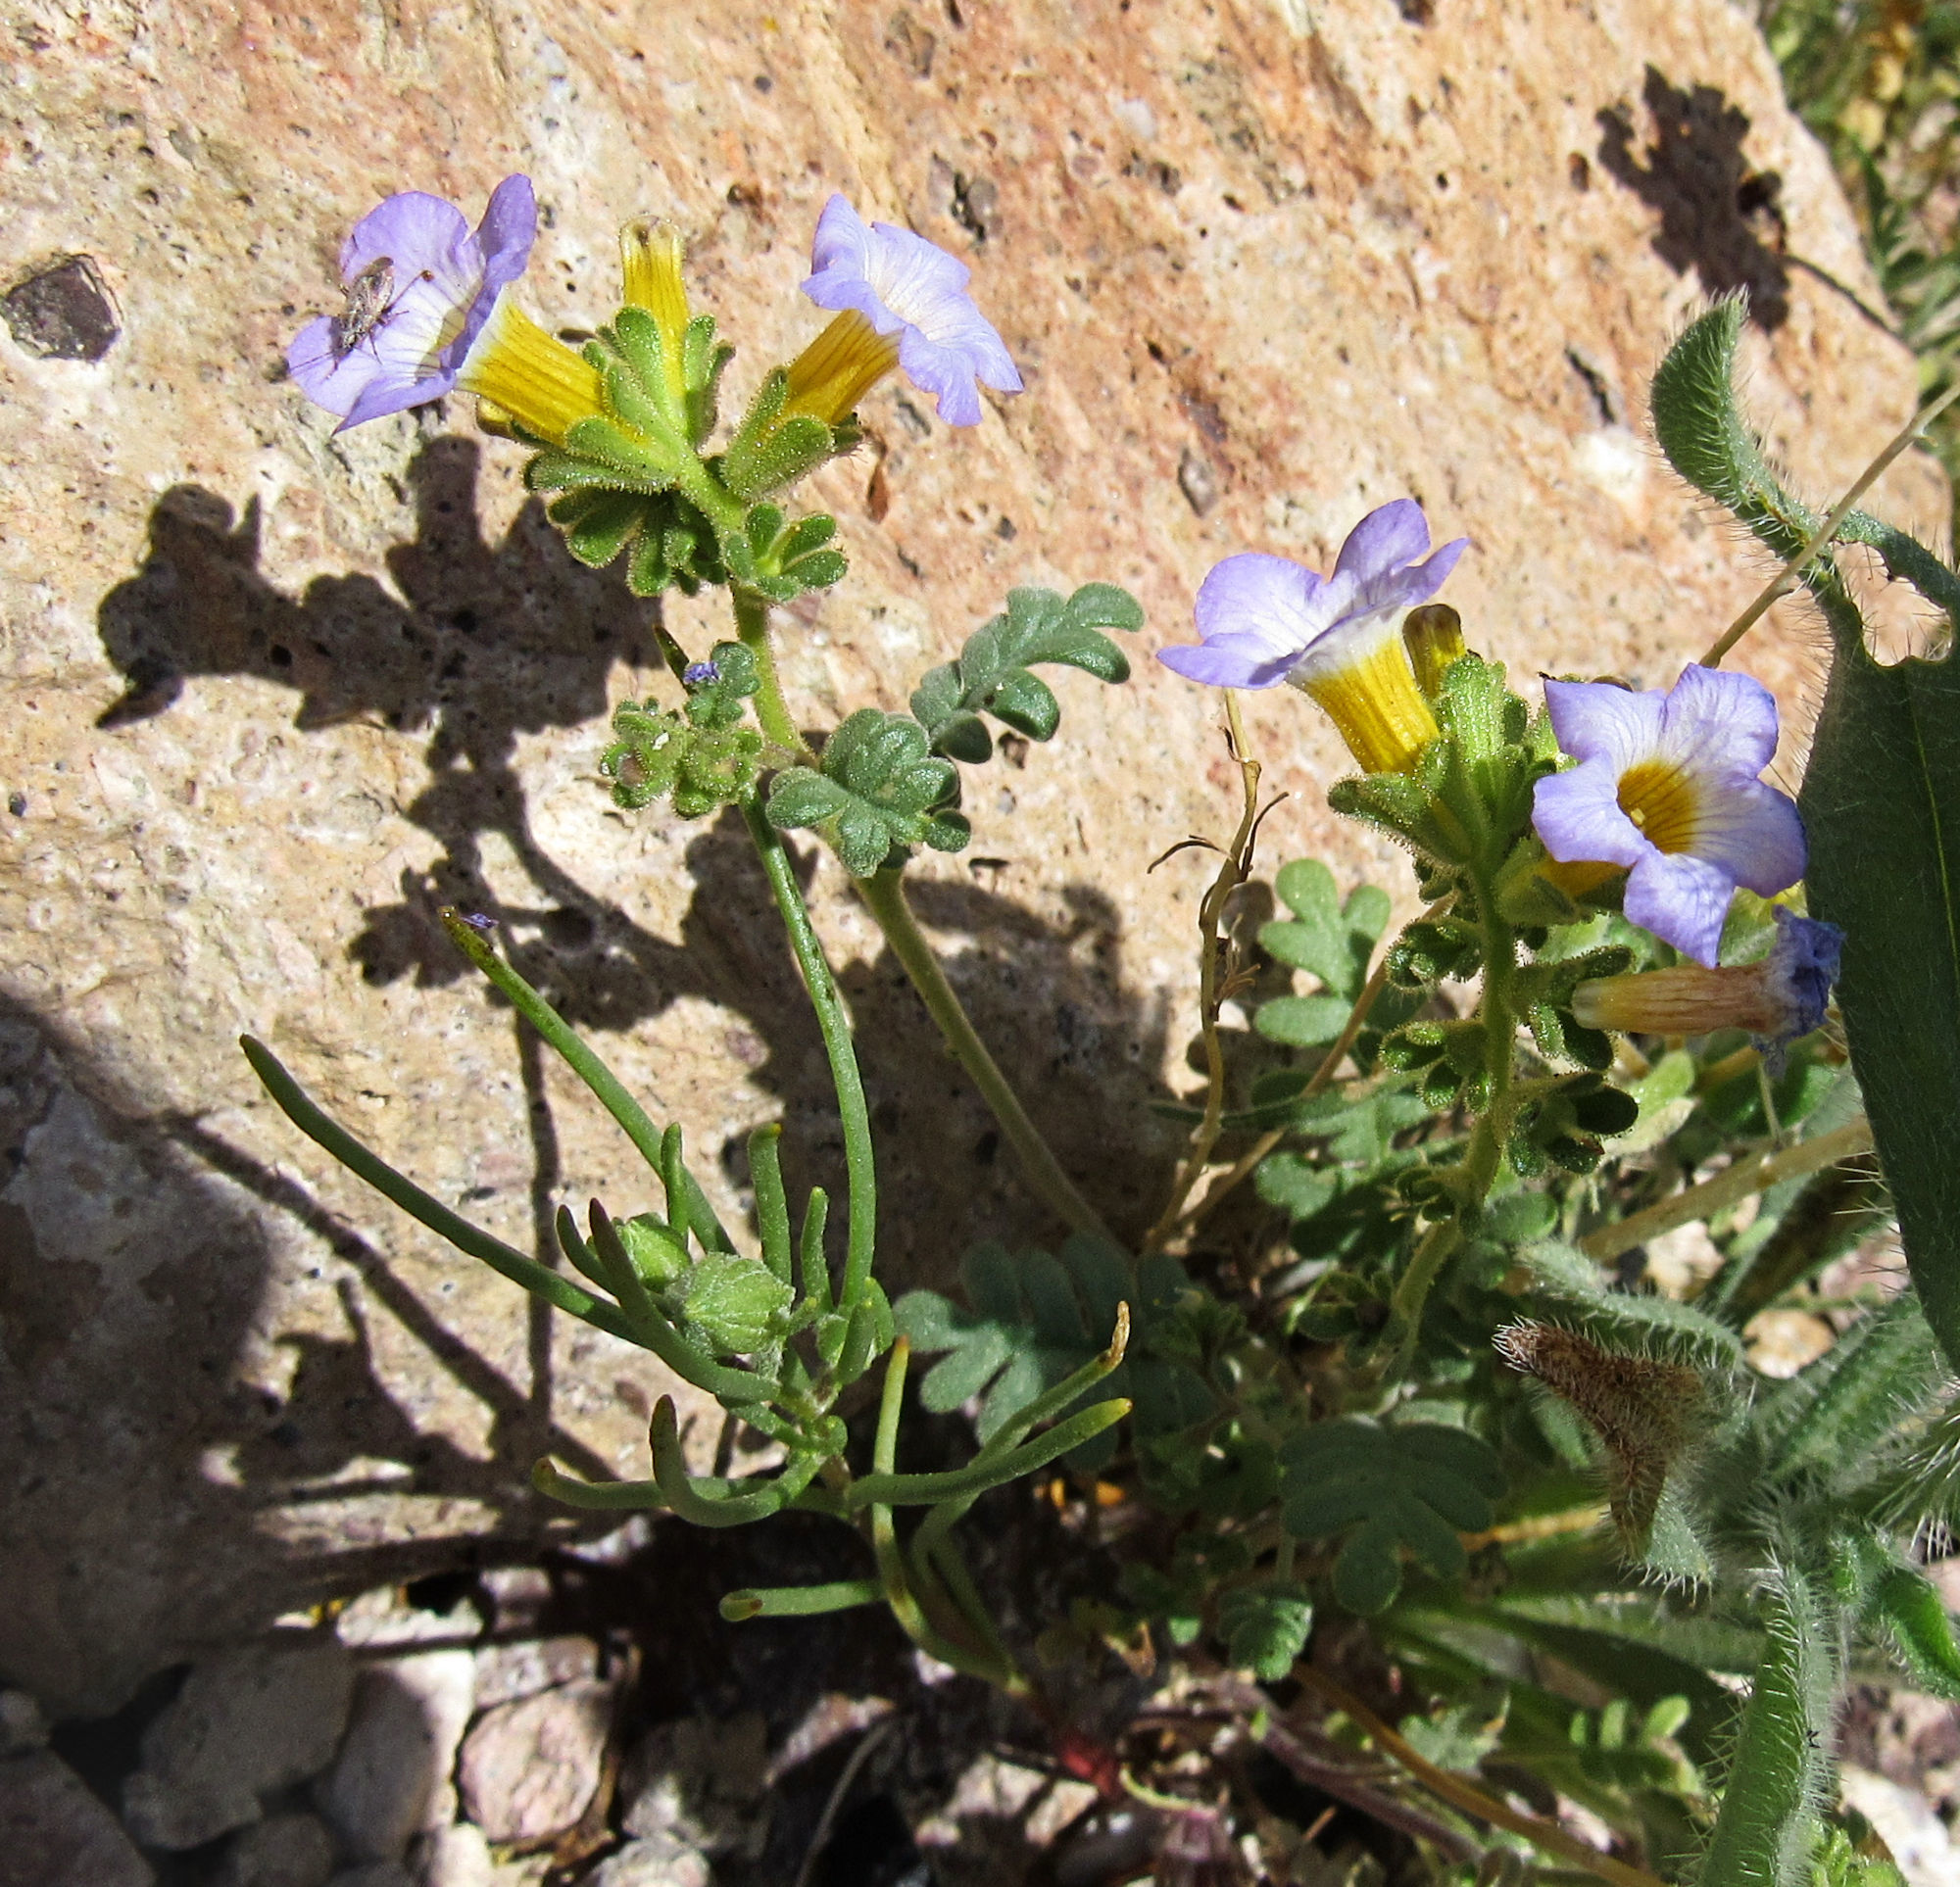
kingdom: Plantae
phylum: Tracheophyta
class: Magnoliopsida
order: Boraginales
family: Hydrophyllaceae
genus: Phacelia
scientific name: Phacelia fremontii
